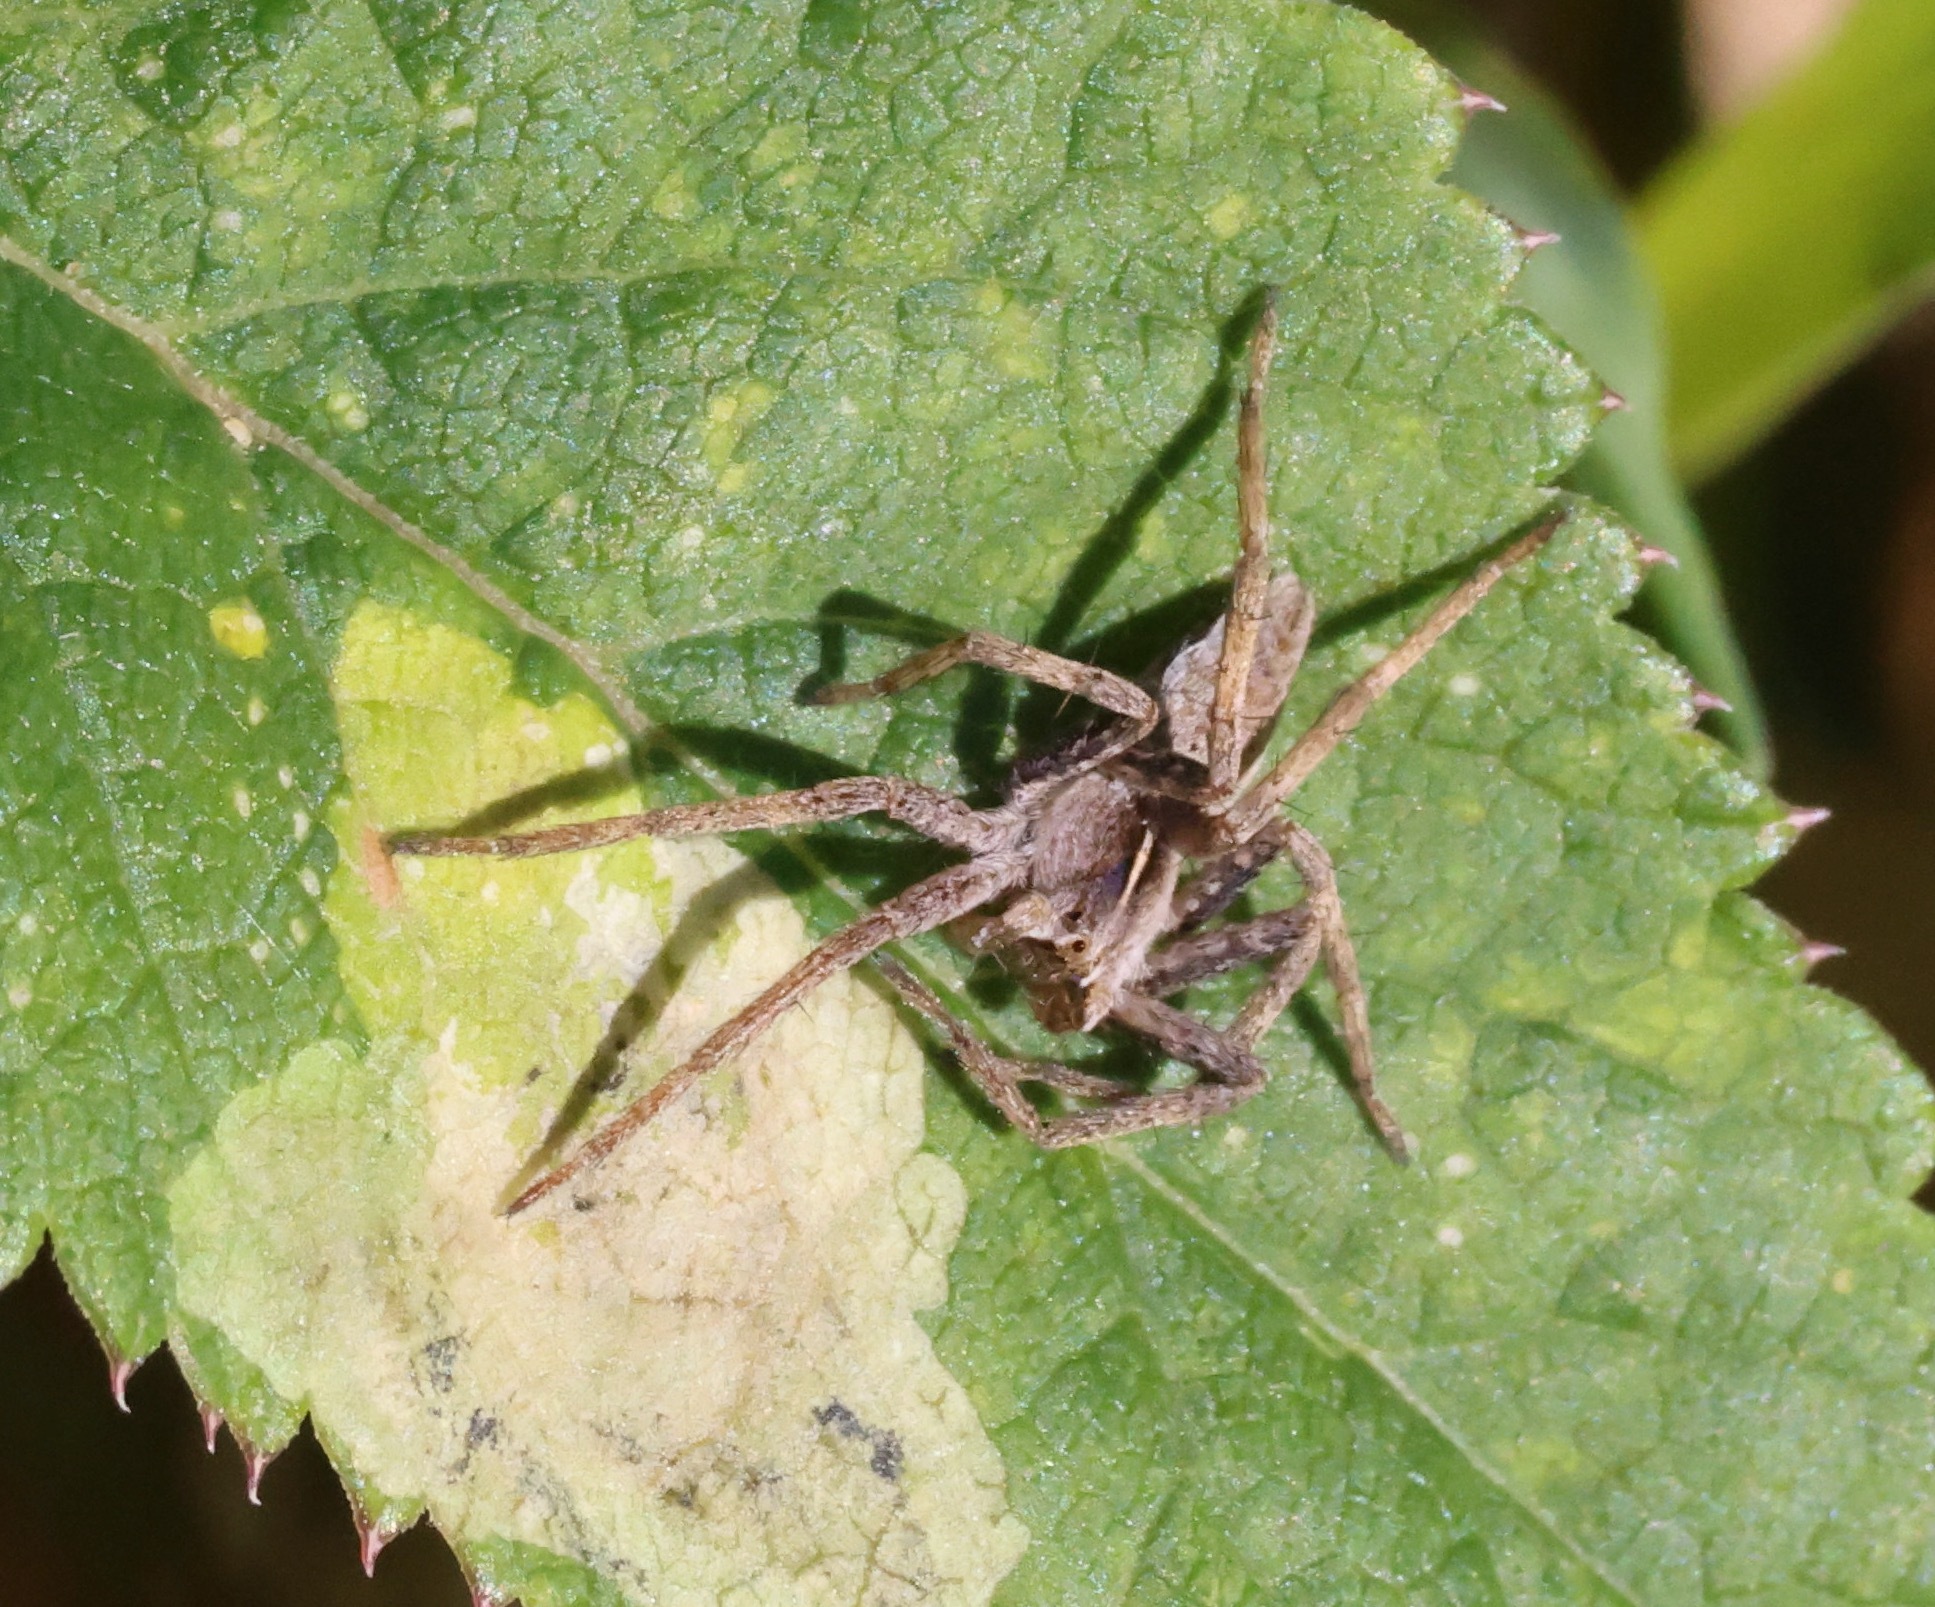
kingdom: Animalia
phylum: Arthropoda
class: Arachnida
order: Araneae
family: Pisauridae
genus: Pisaura
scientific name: Pisaura mirabilis
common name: Tent spider
